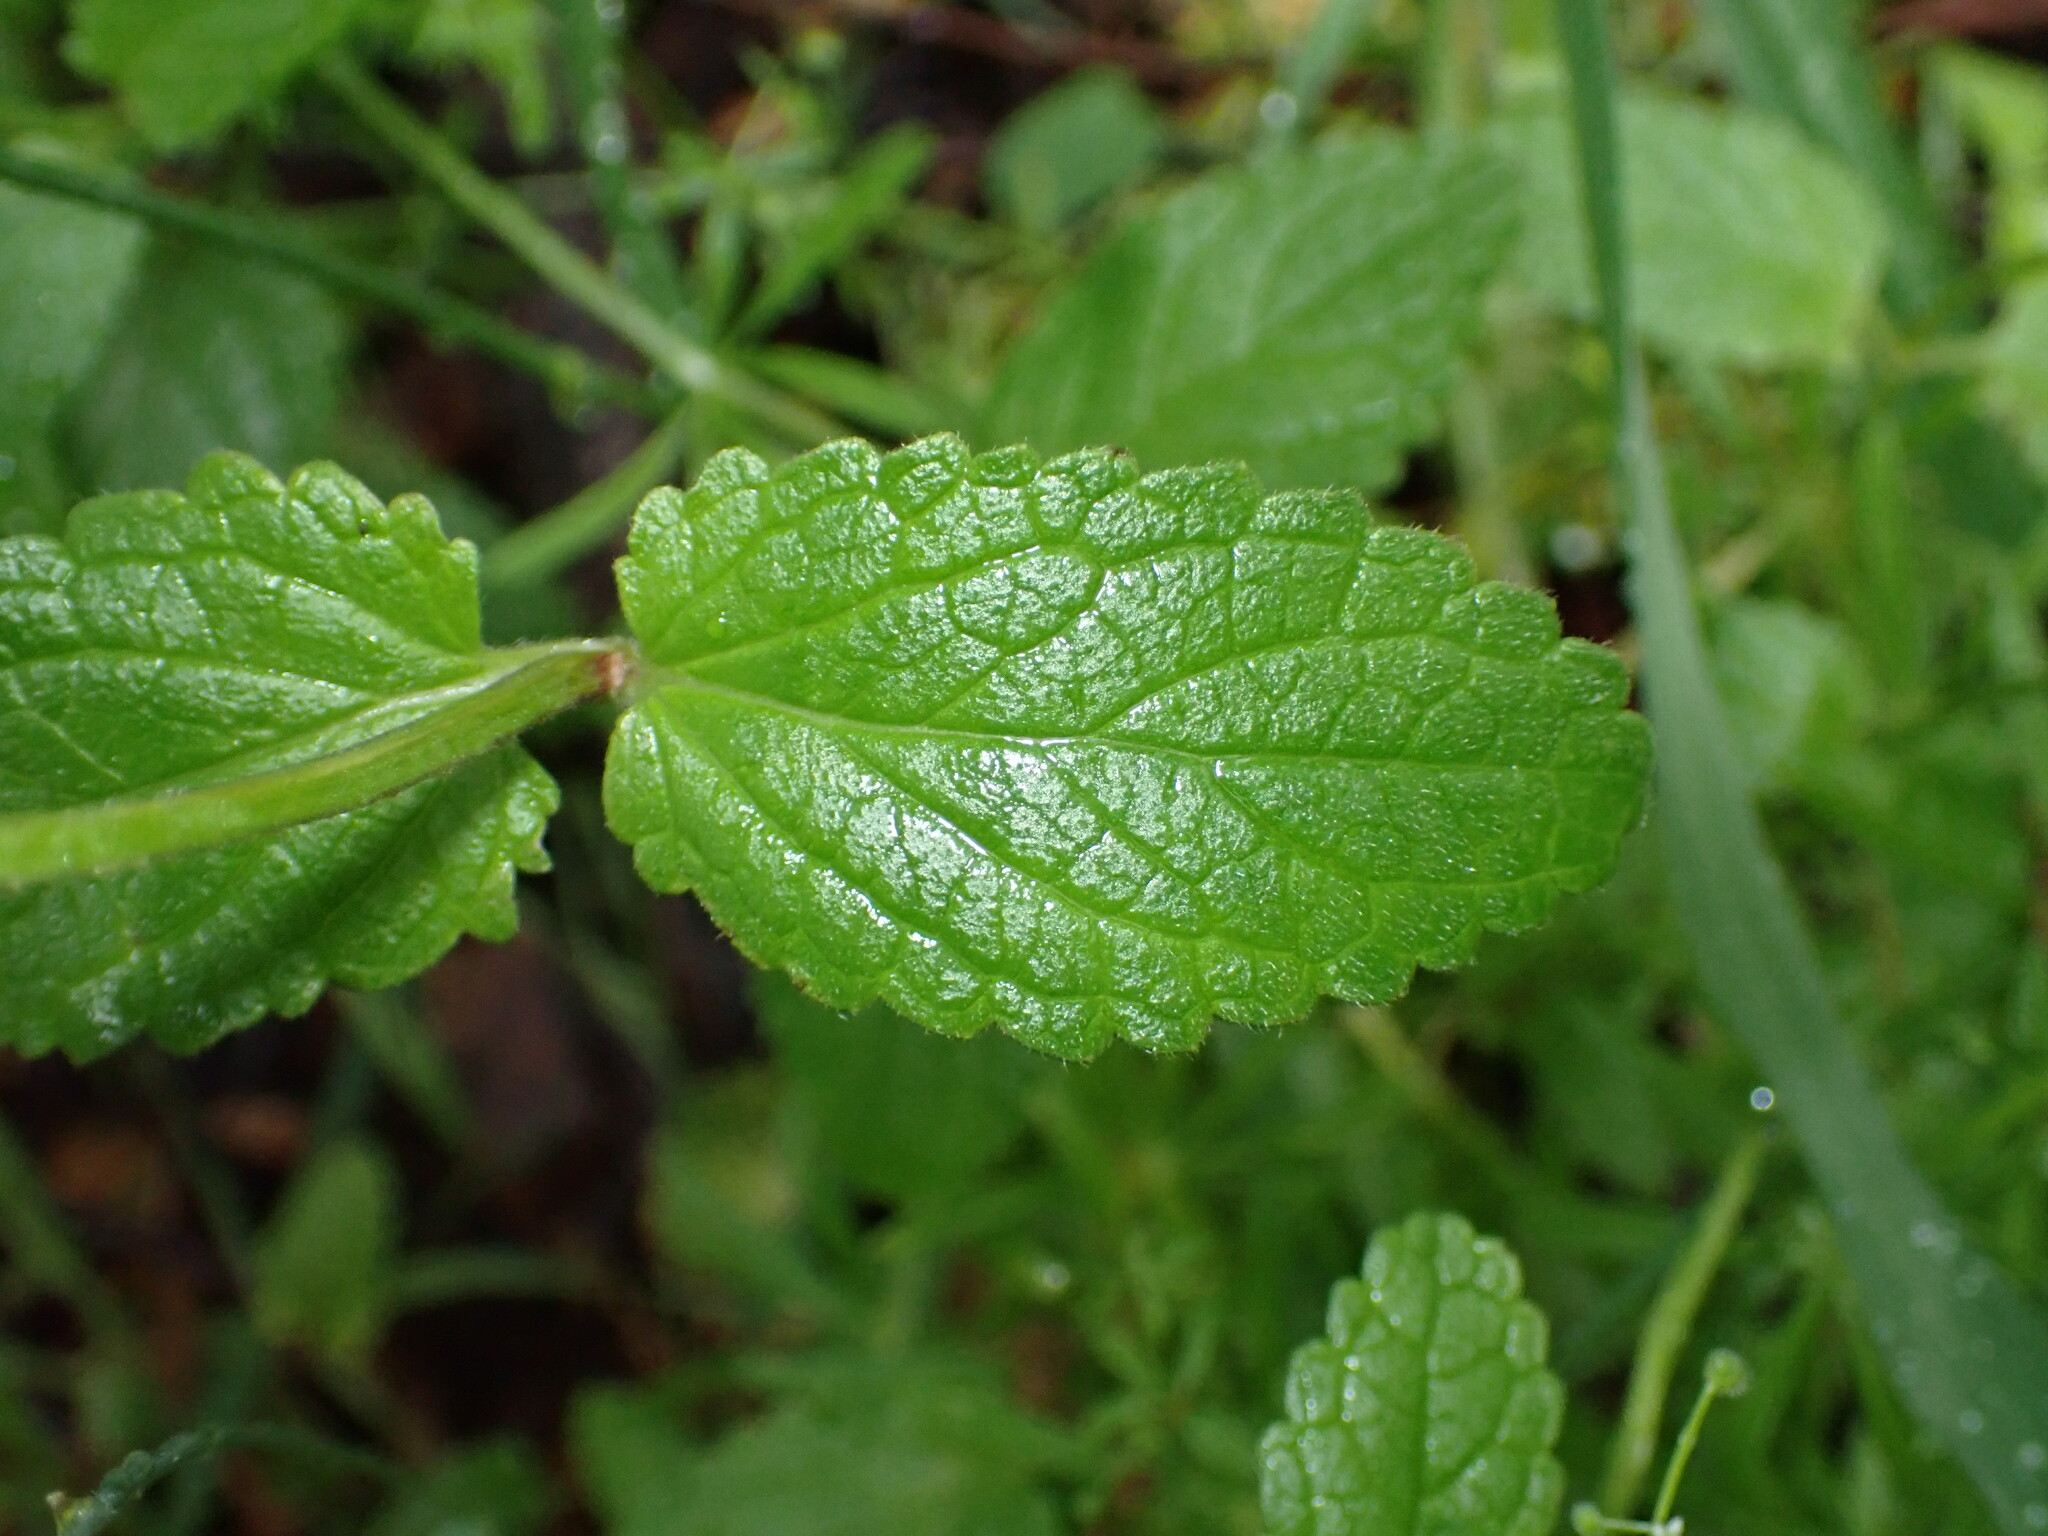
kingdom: Plantae
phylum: Tracheophyta
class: Magnoliopsida
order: Lamiales
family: Lamiaceae
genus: Stachys
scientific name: Stachys rigida
